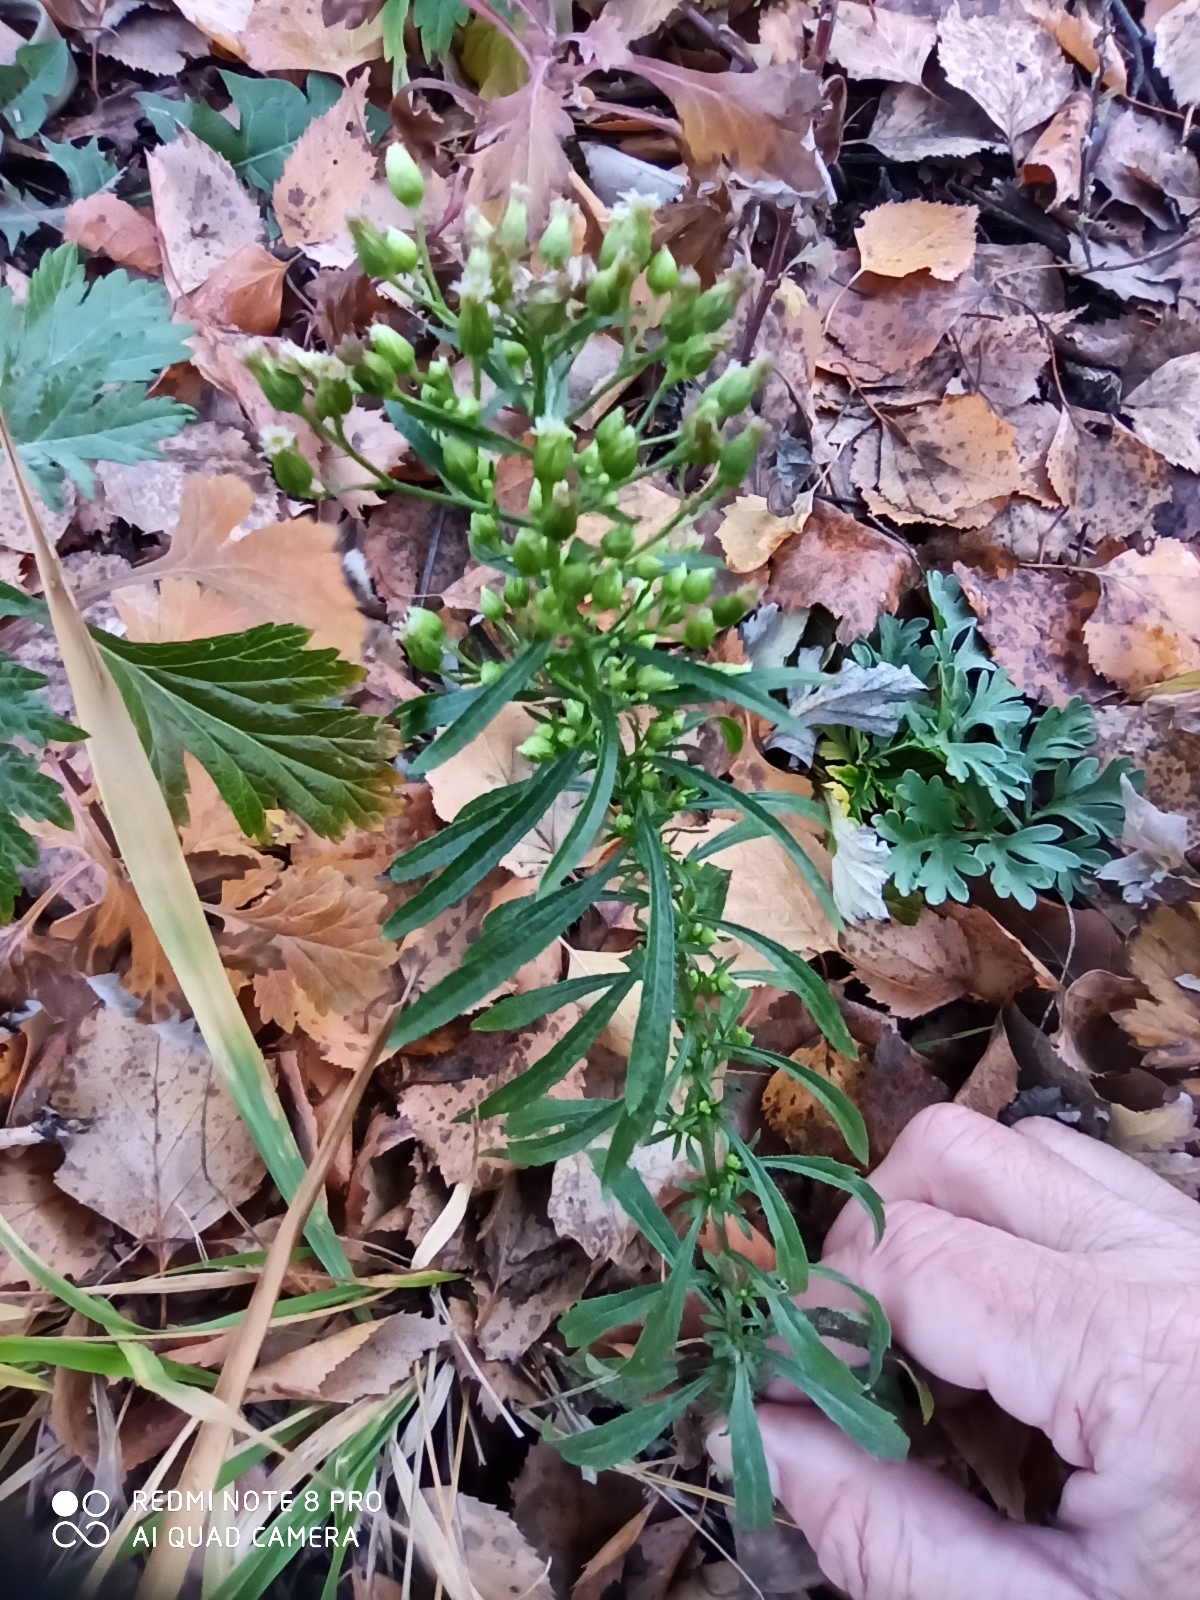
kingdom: Plantae
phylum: Tracheophyta
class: Magnoliopsida
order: Asterales
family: Asteraceae
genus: Erigeron
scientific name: Erigeron canadensis
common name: Canadian fleabane
